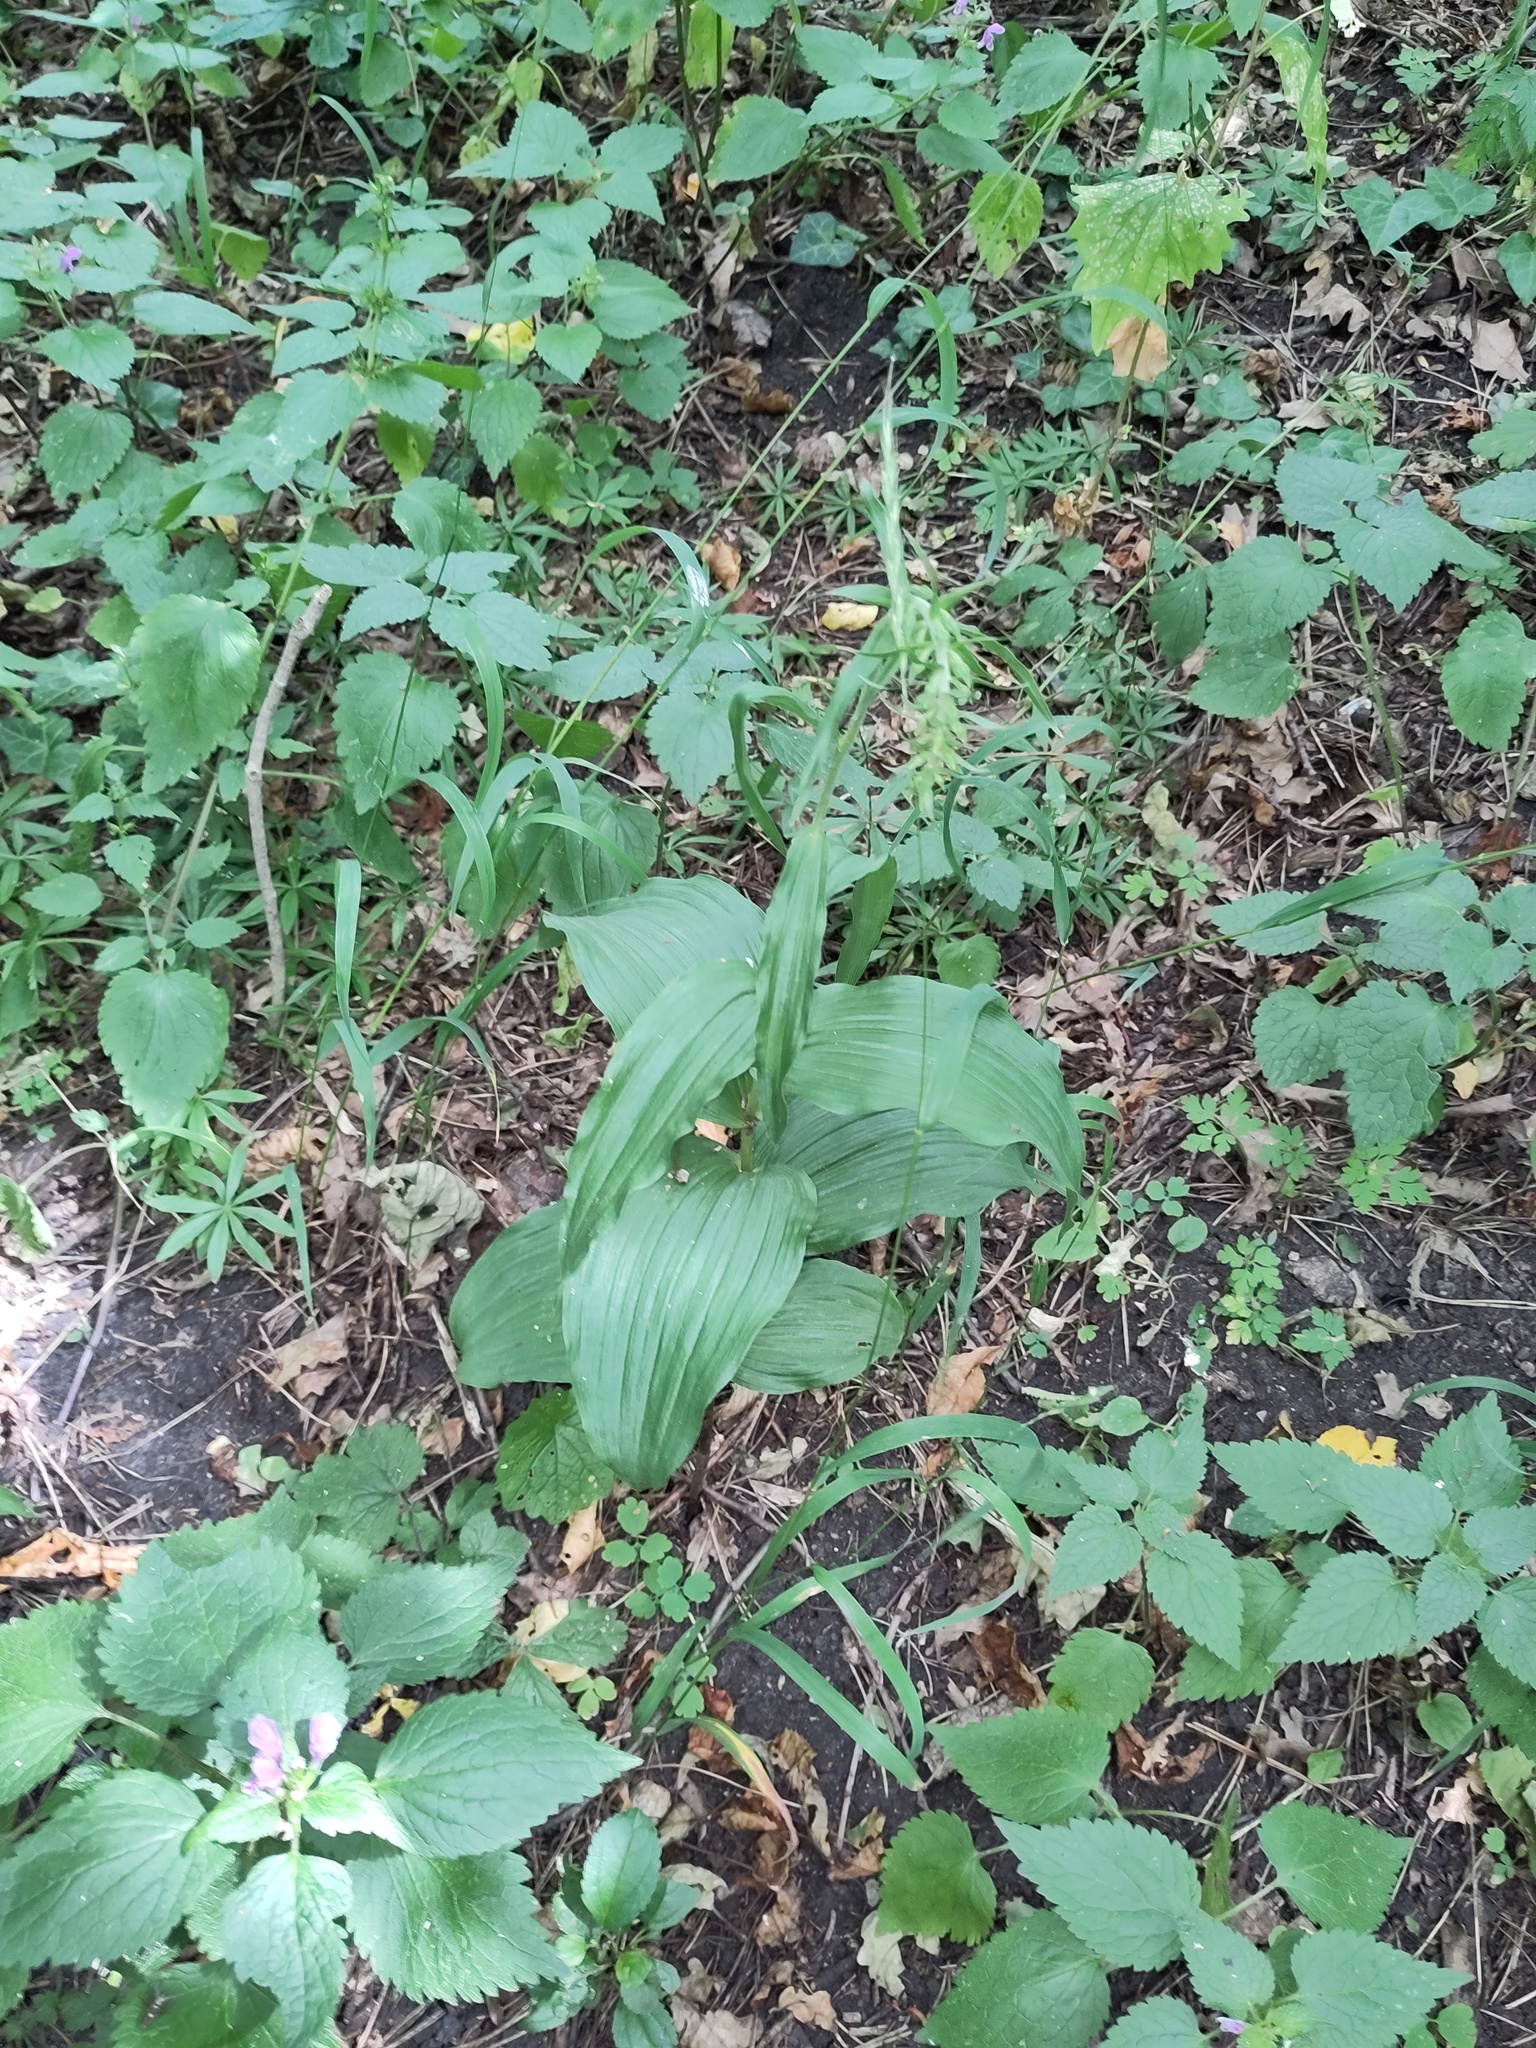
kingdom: Plantae
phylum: Tracheophyta
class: Liliopsida
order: Asparagales
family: Orchidaceae
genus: Epipactis
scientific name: Epipactis helleborine
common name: Broad-leaved helleborine
